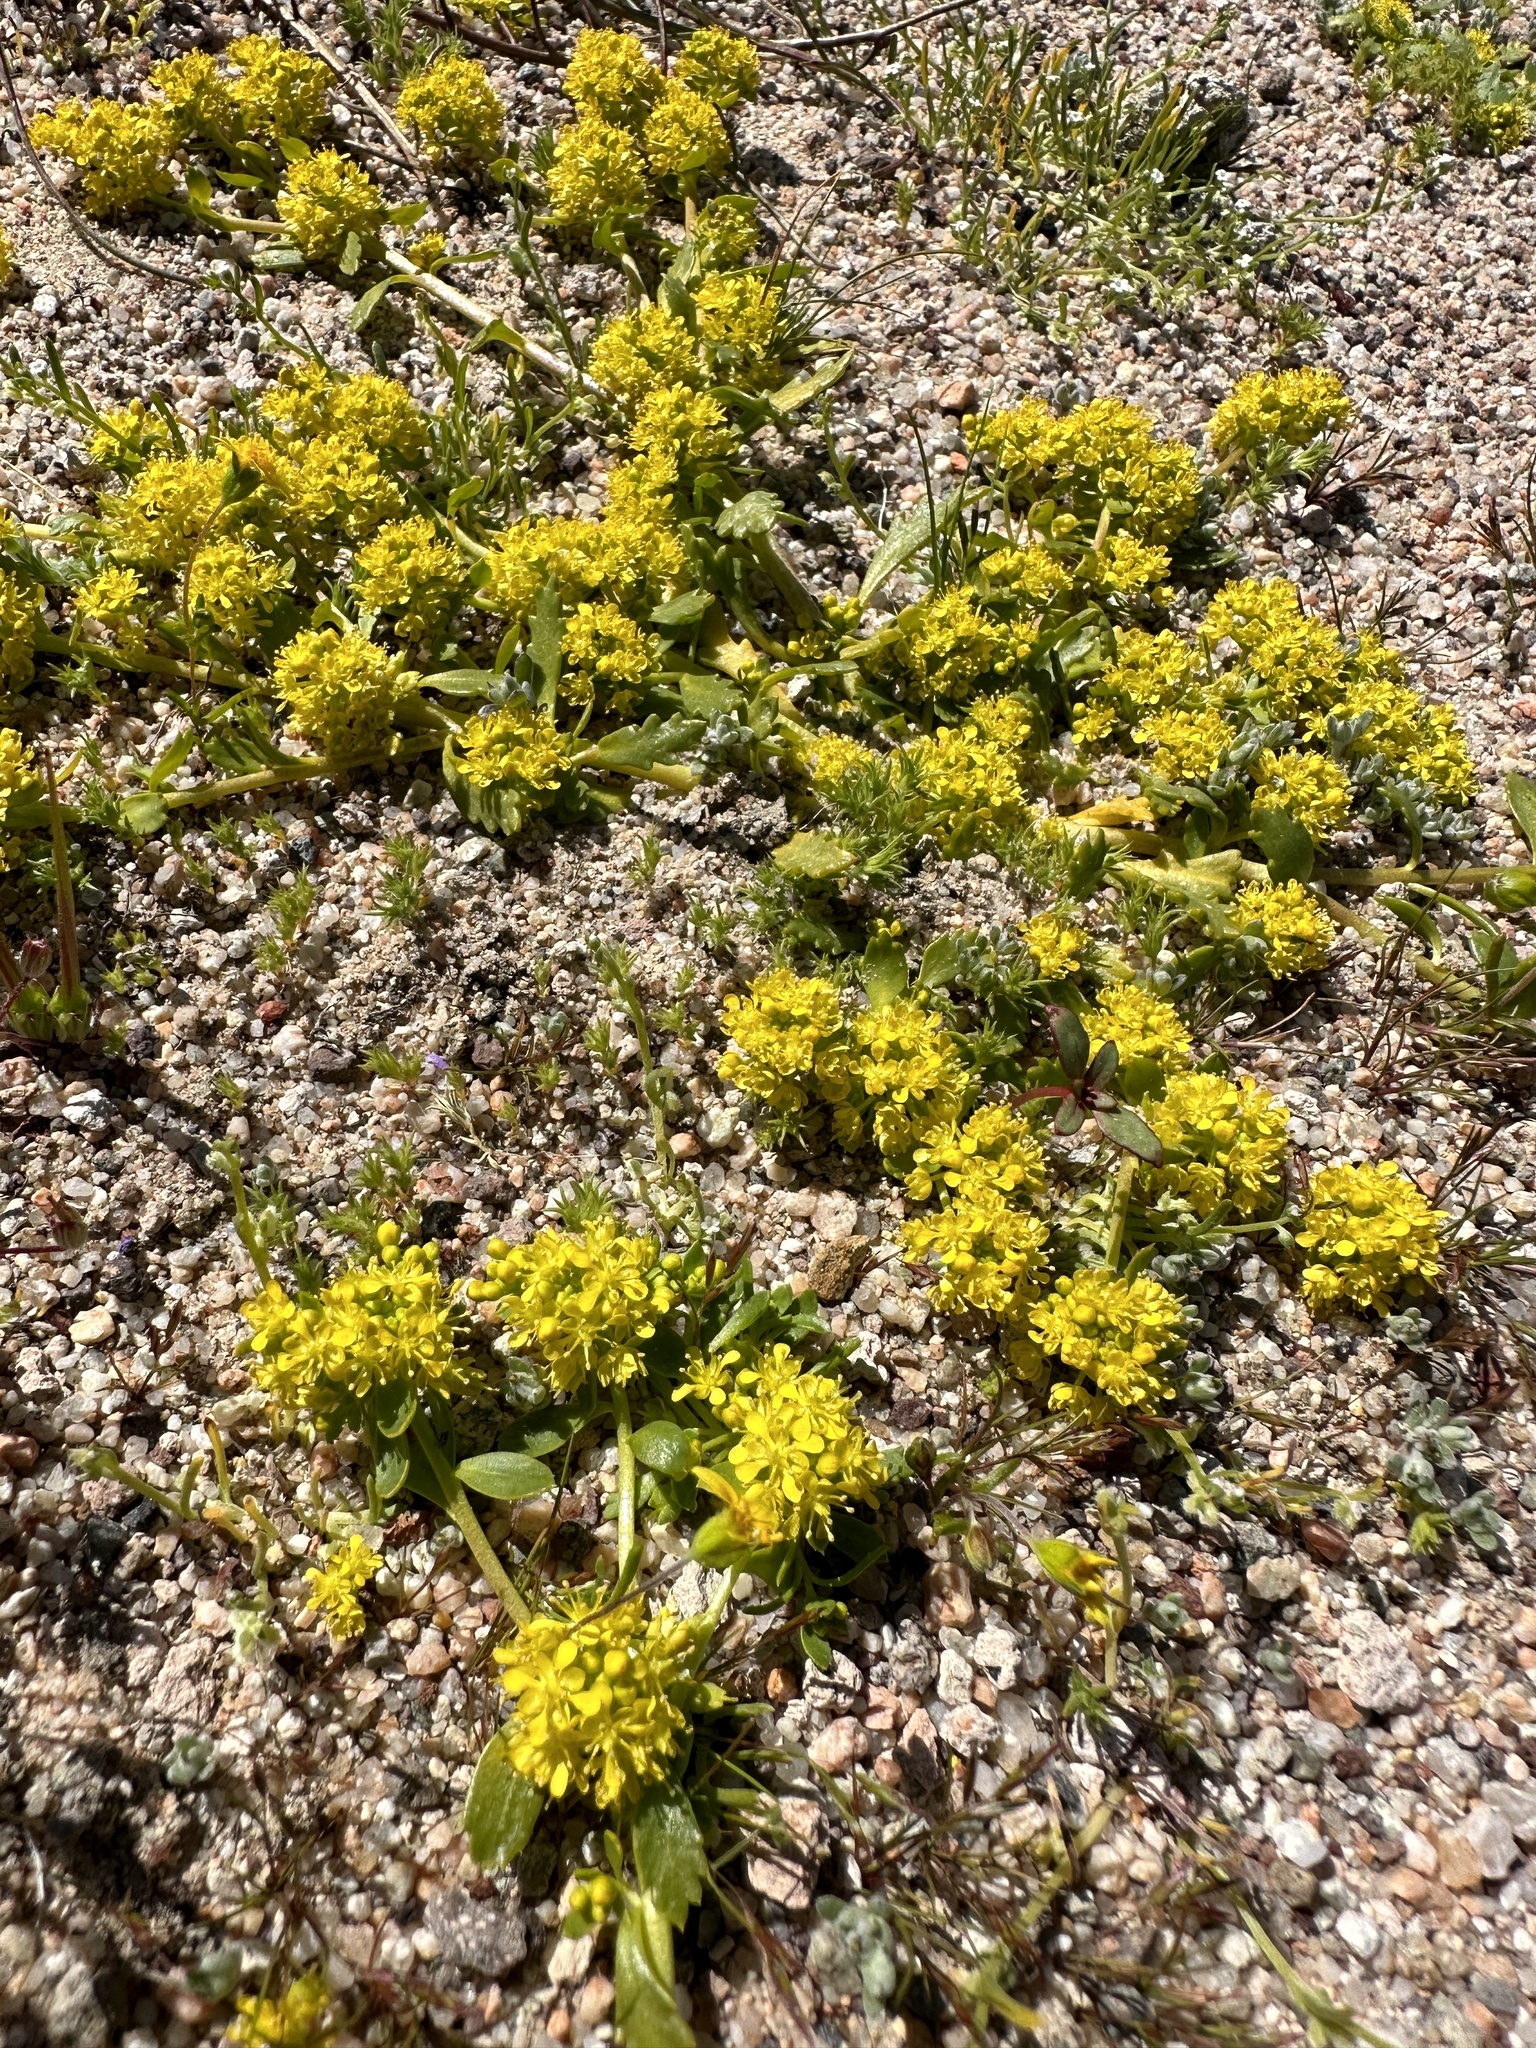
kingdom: Plantae
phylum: Tracheophyta
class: Magnoliopsida
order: Brassicales
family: Brassicaceae
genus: Lepidium
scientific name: Lepidium flavum
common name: Yellow pepperwort
